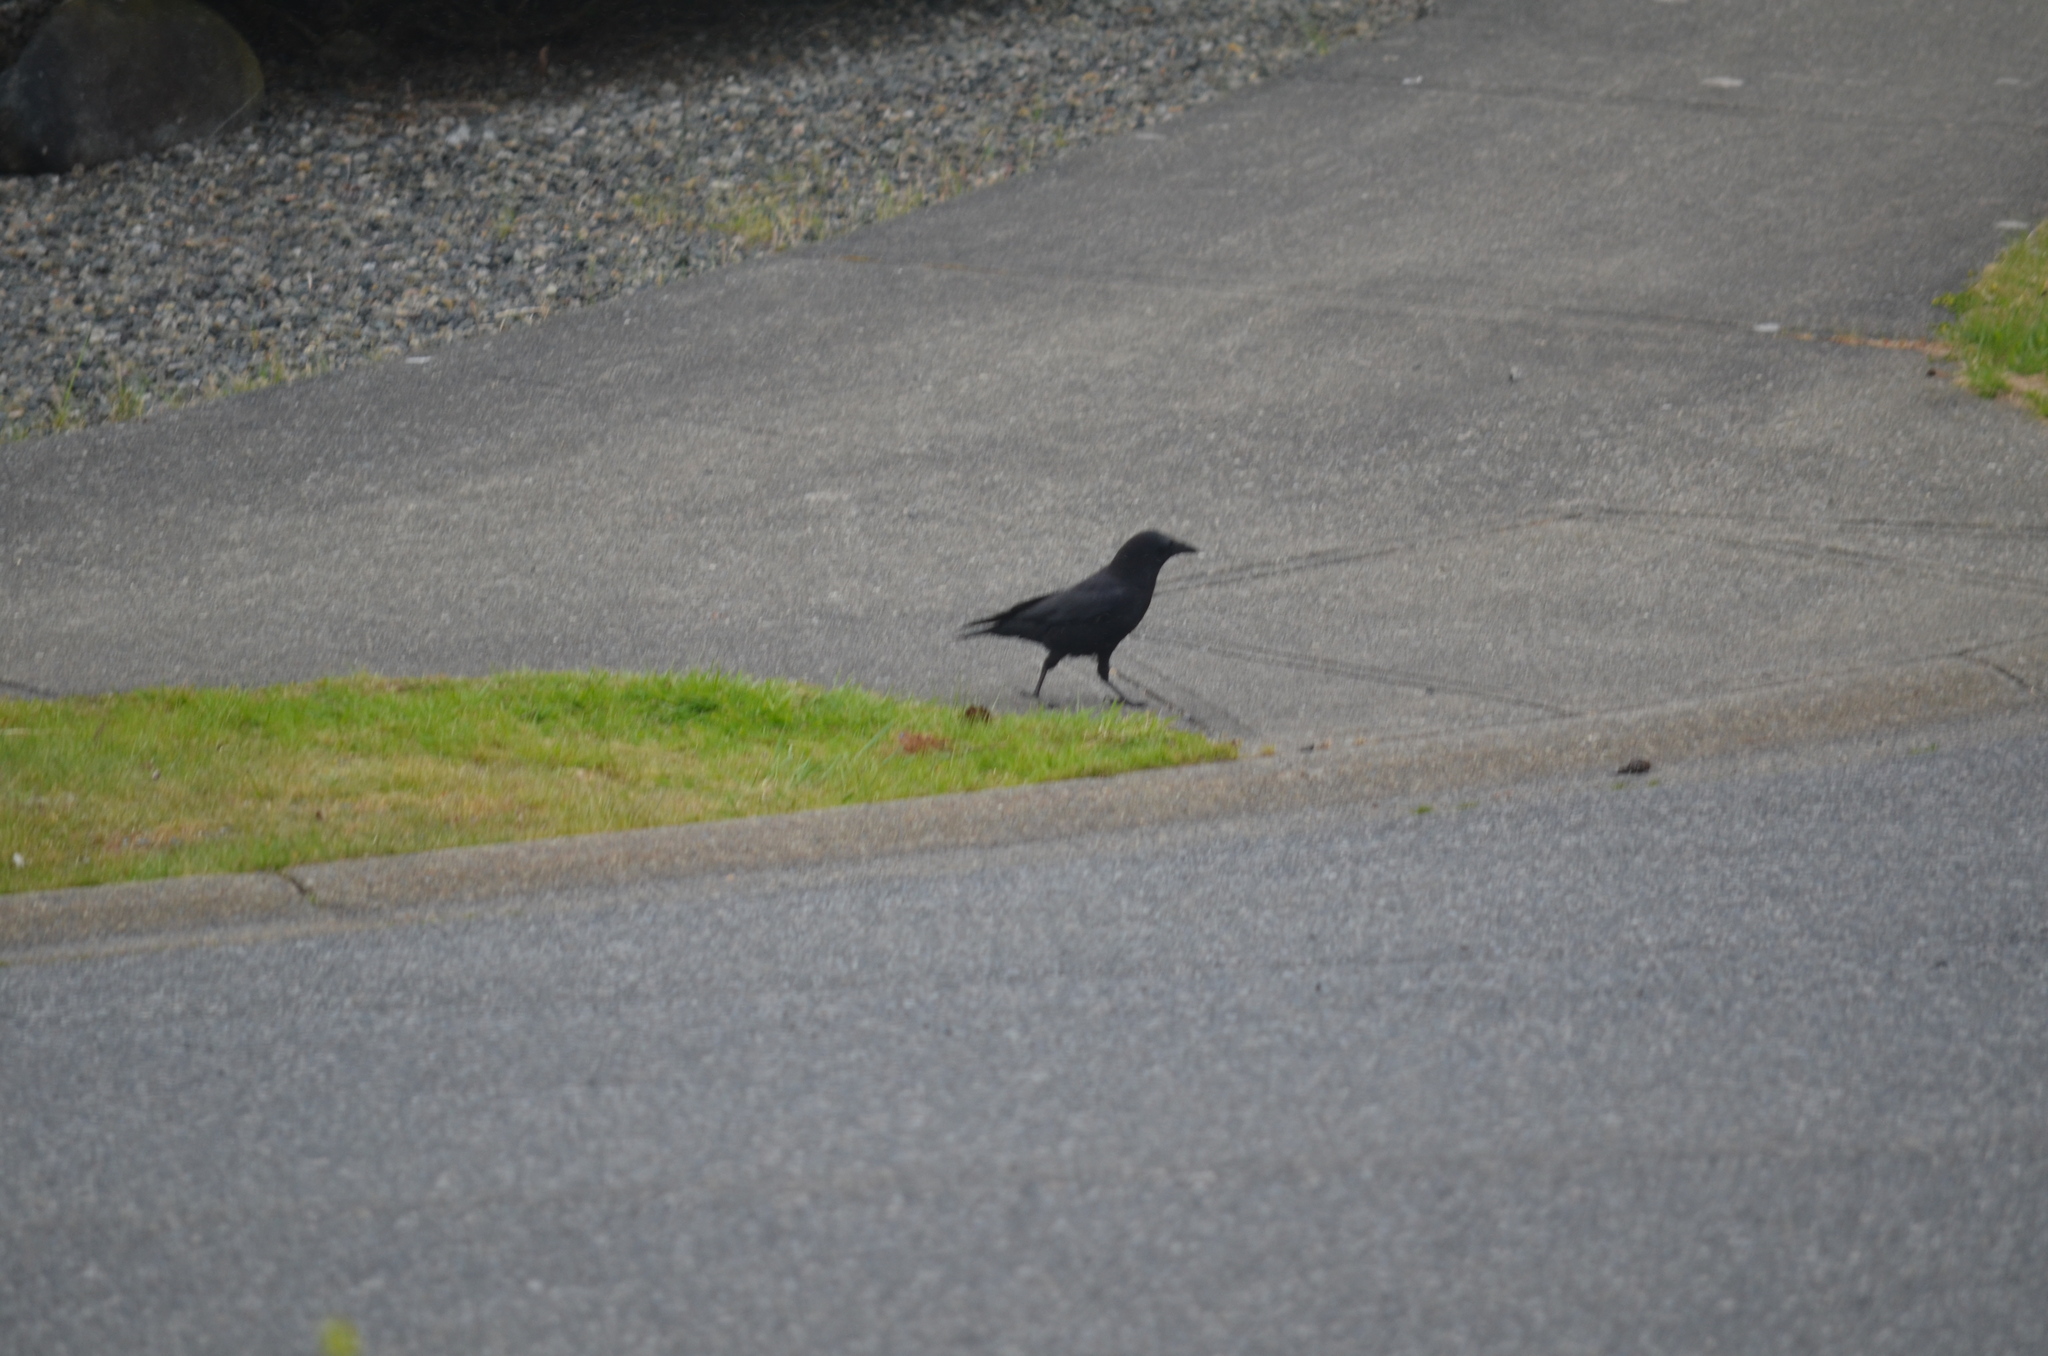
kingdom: Animalia
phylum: Chordata
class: Aves
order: Passeriformes
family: Corvidae
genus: Corvus
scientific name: Corvus brachyrhynchos
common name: American crow
